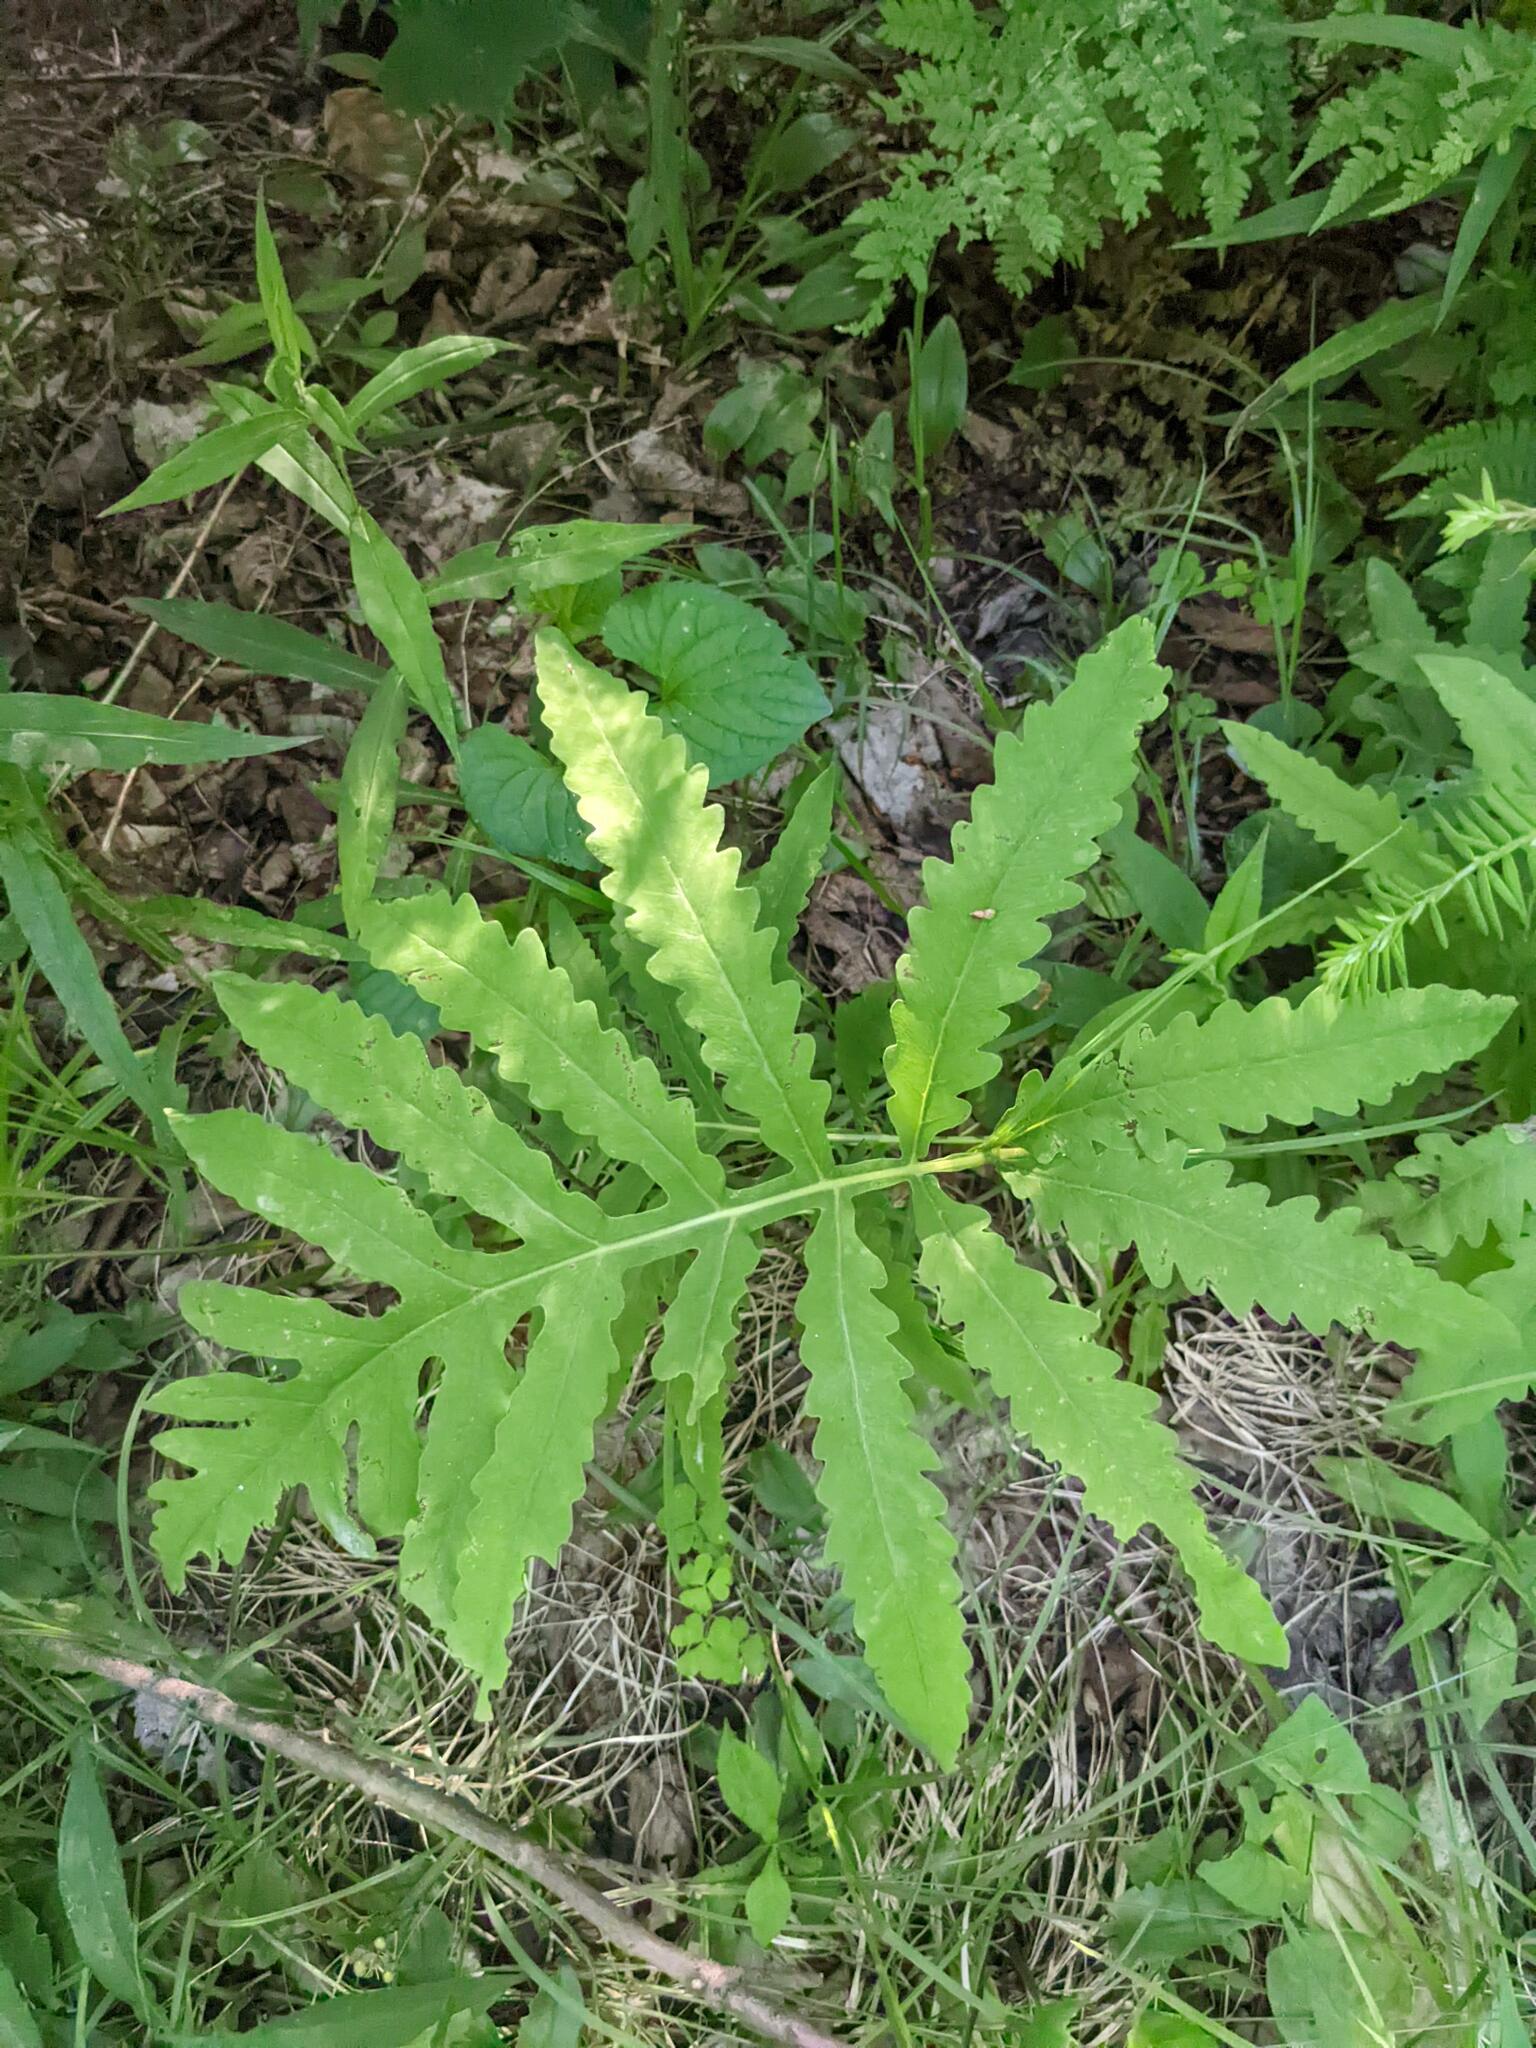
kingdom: Plantae
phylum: Tracheophyta
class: Polypodiopsida
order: Polypodiales
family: Onocleaceae
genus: Onoclea
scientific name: Onoclea sensibilis
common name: Sensitive fern
